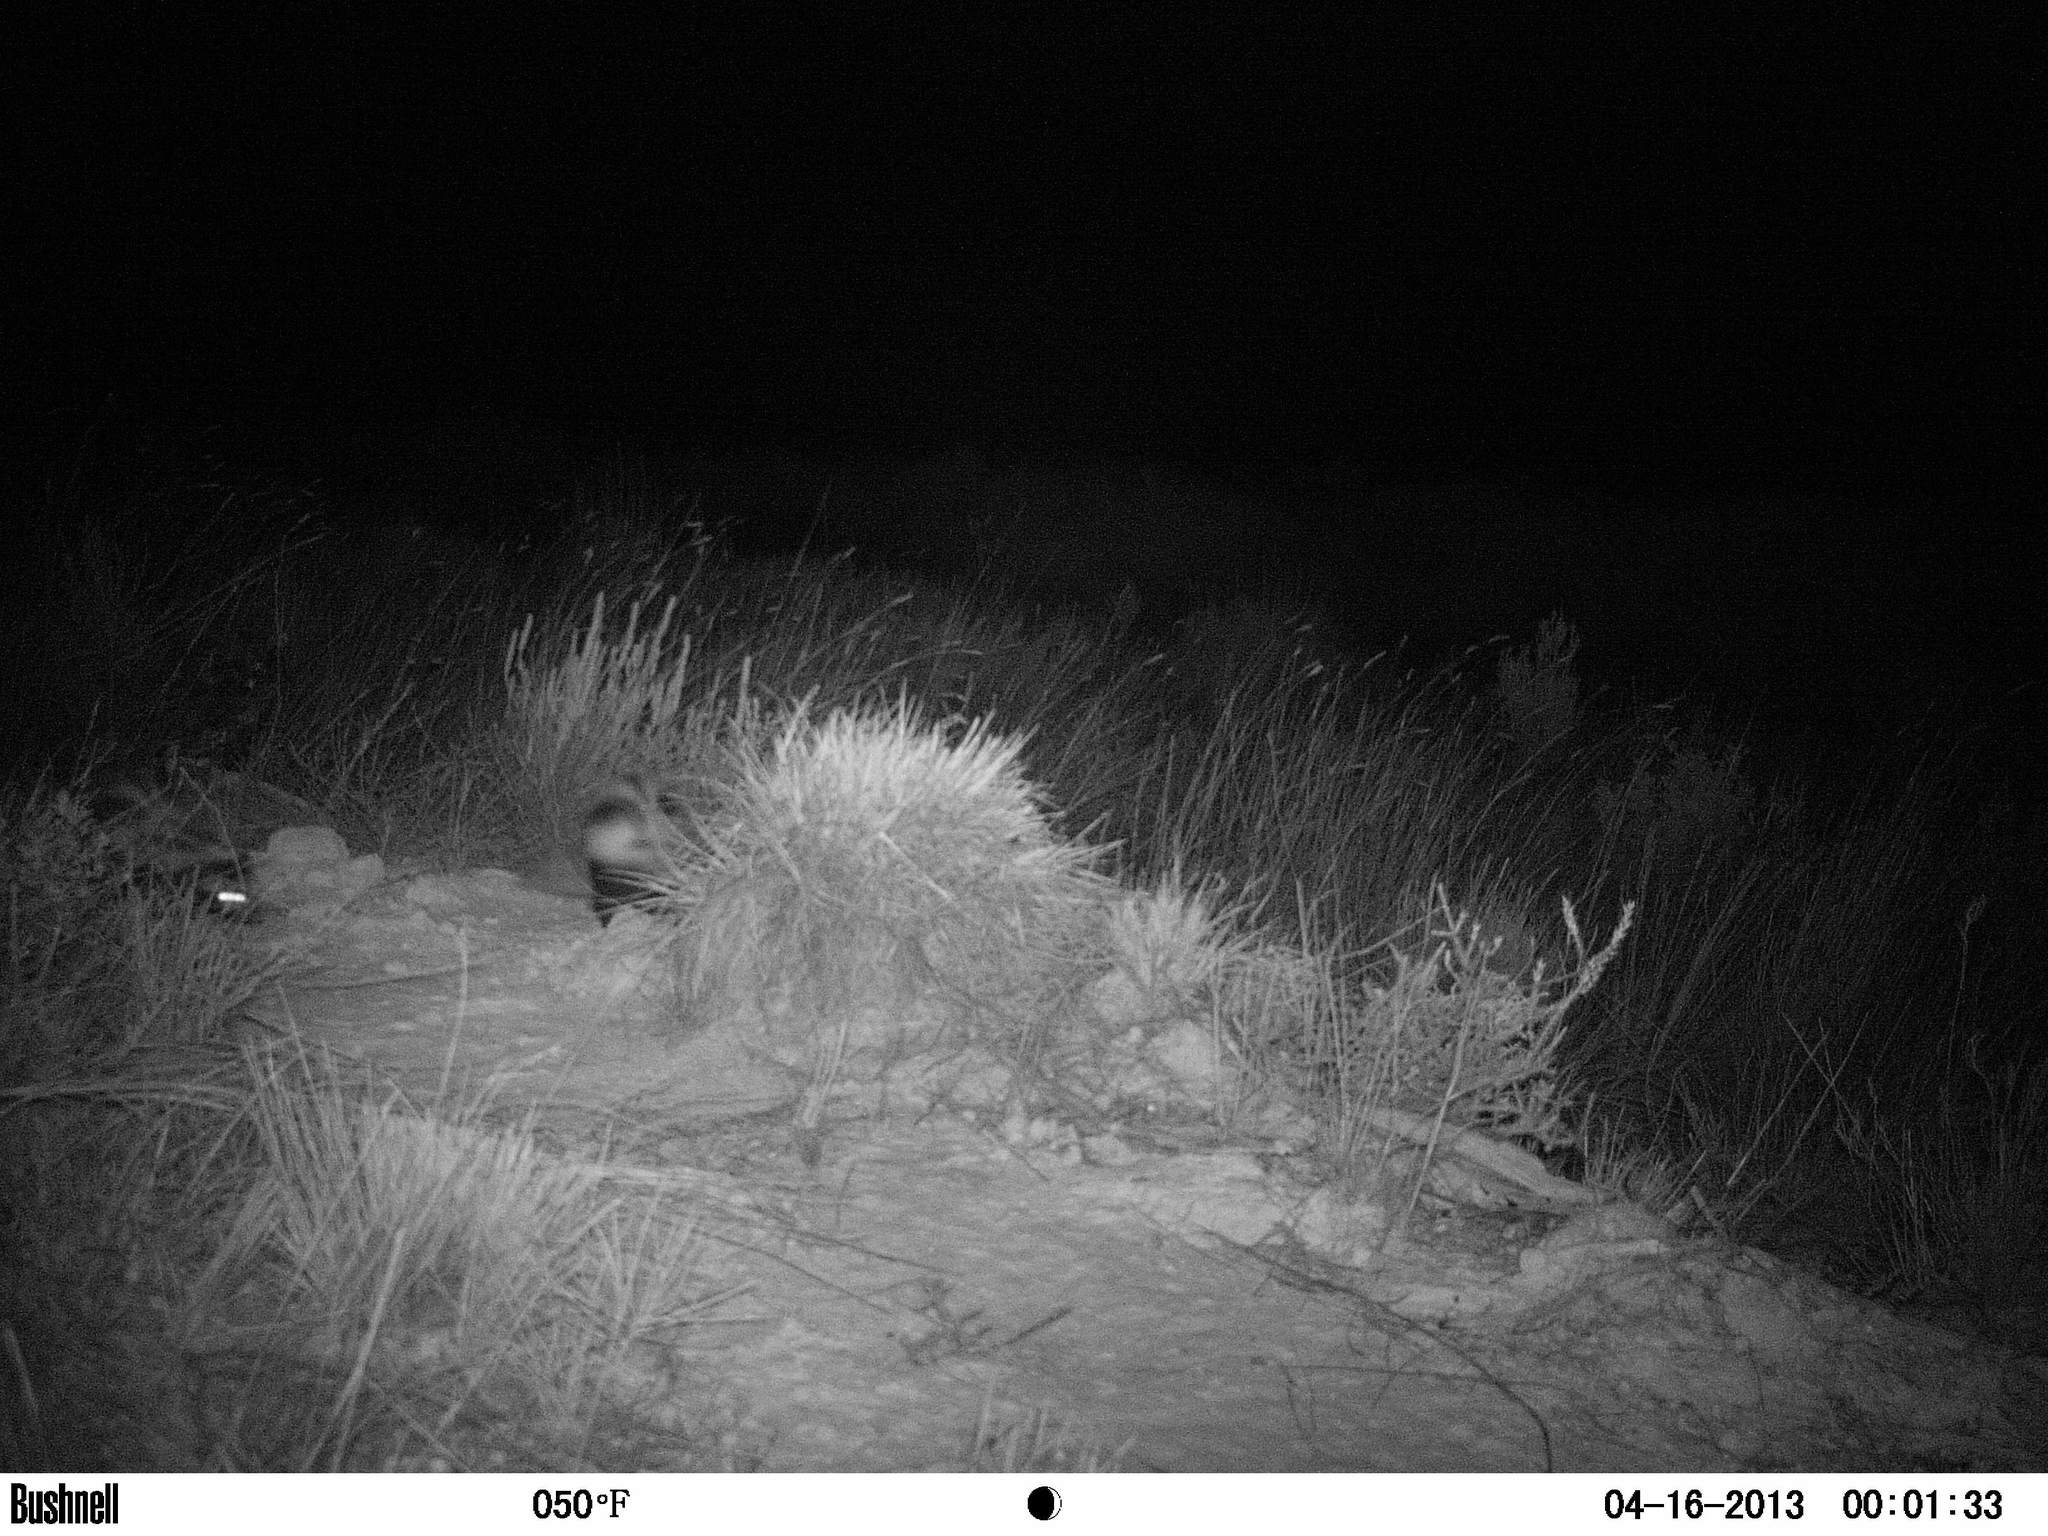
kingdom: Animalia
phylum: Chordata
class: Mammalia
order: Carnivora
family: Mustelidae
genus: Ictonyx
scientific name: Ictonyx striatus
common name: Striped polecat
